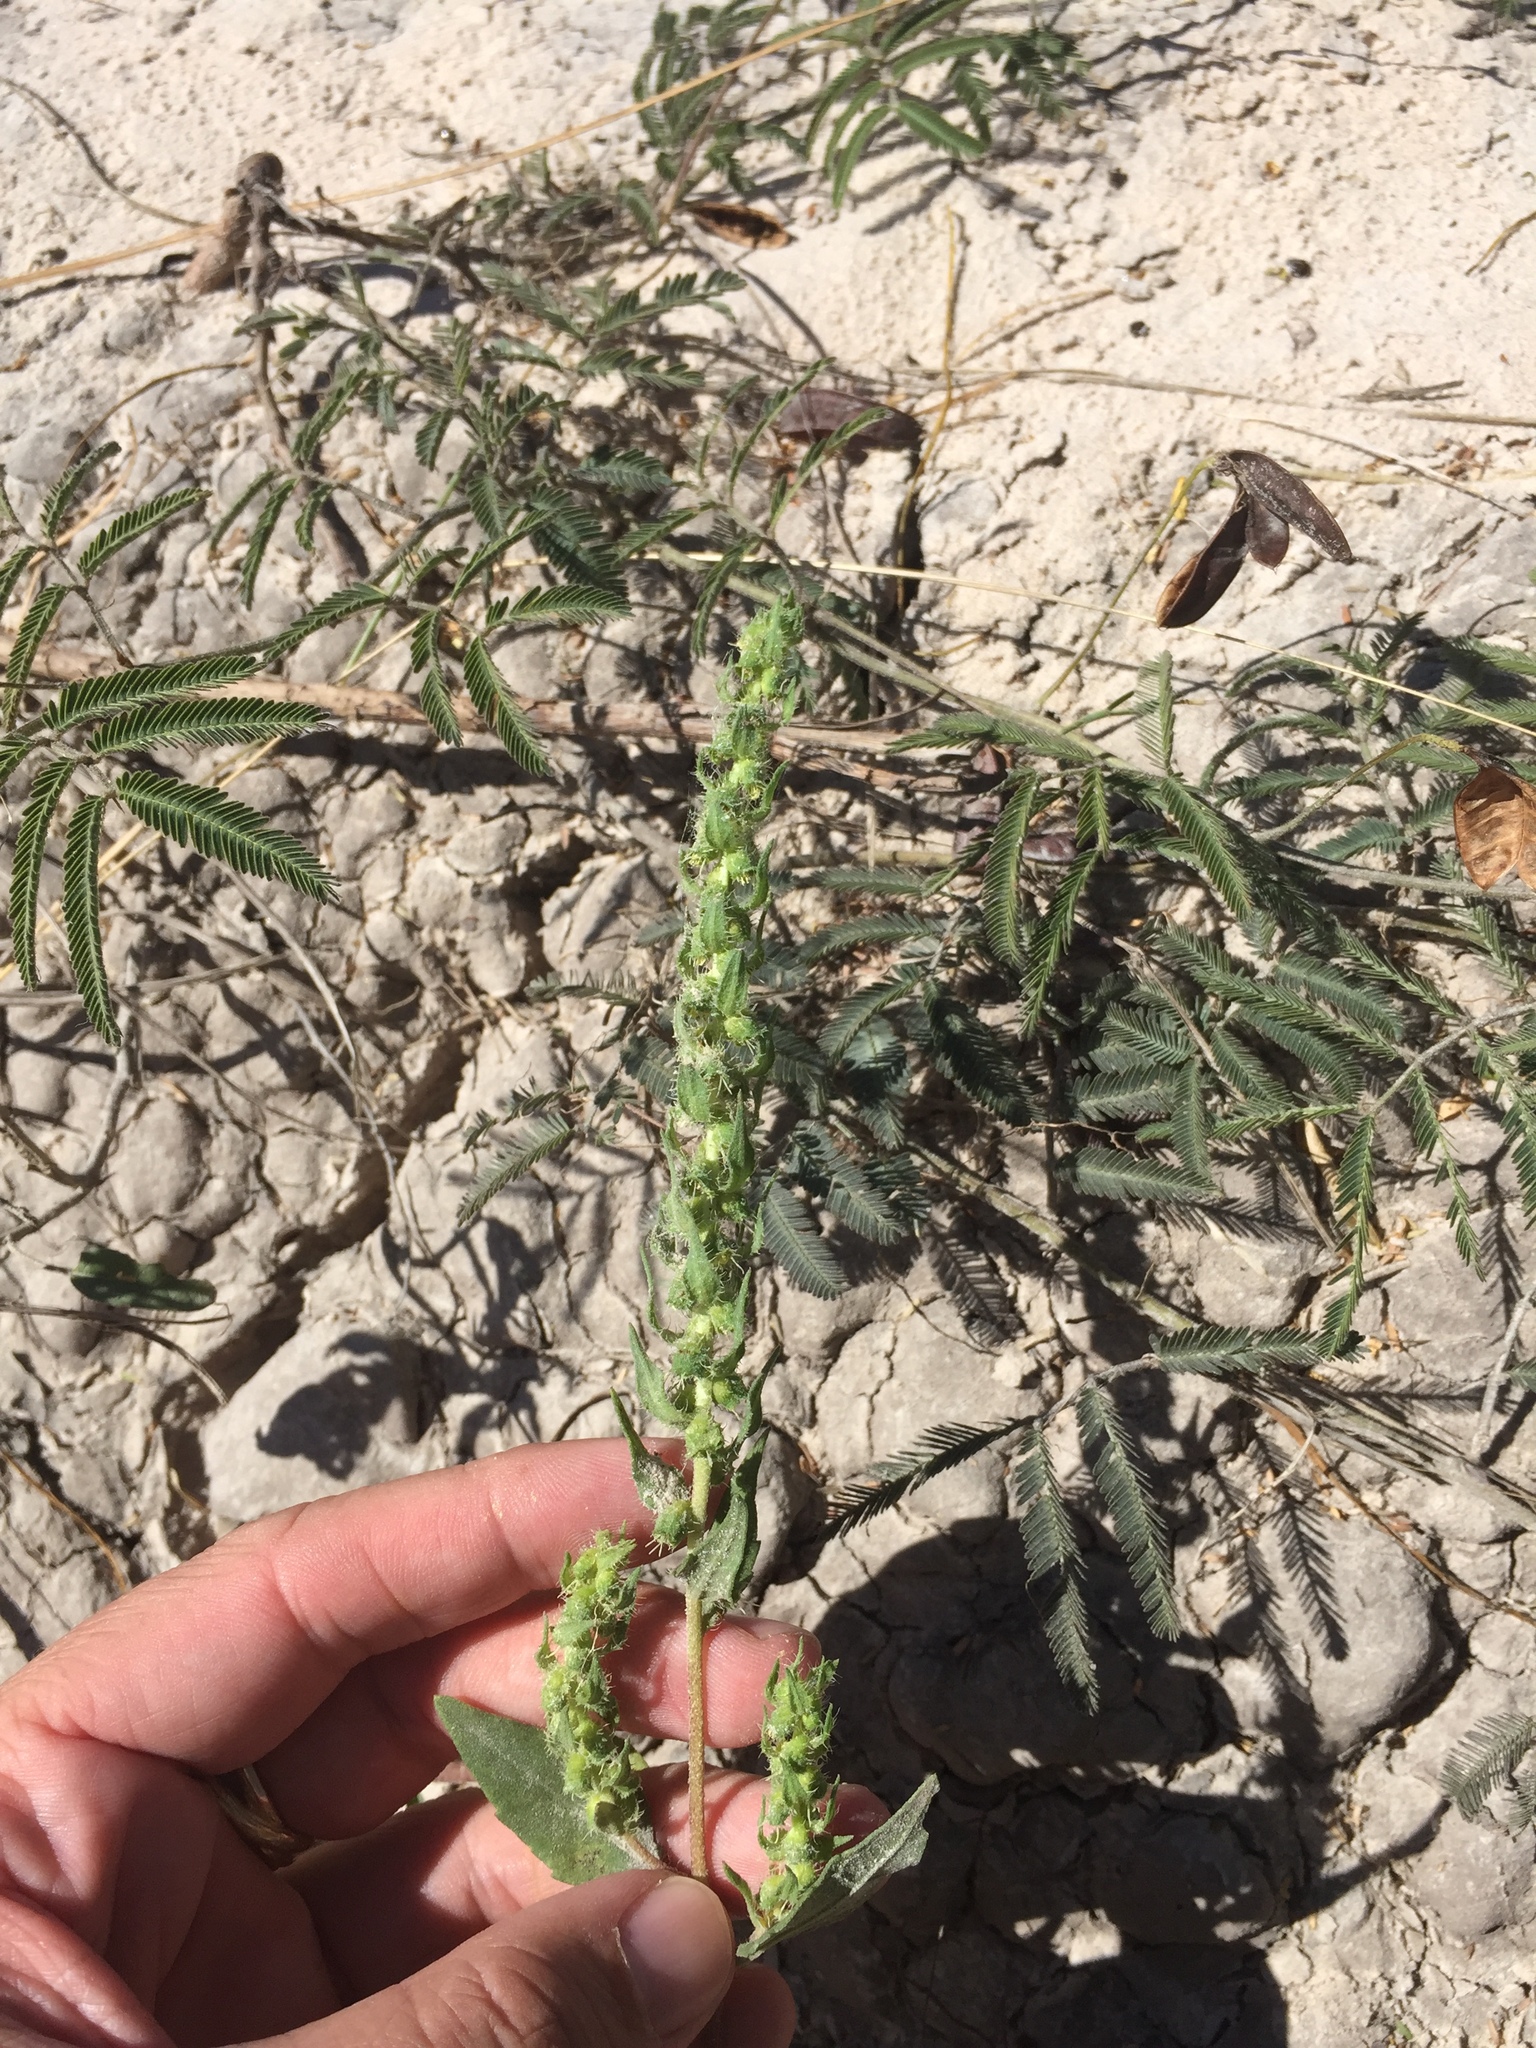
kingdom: Plantae
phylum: Tracheophyta
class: Magnoliopsida
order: Asterales
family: Asteraceae
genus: Iva
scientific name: Iva annua
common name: Marsh-elder
